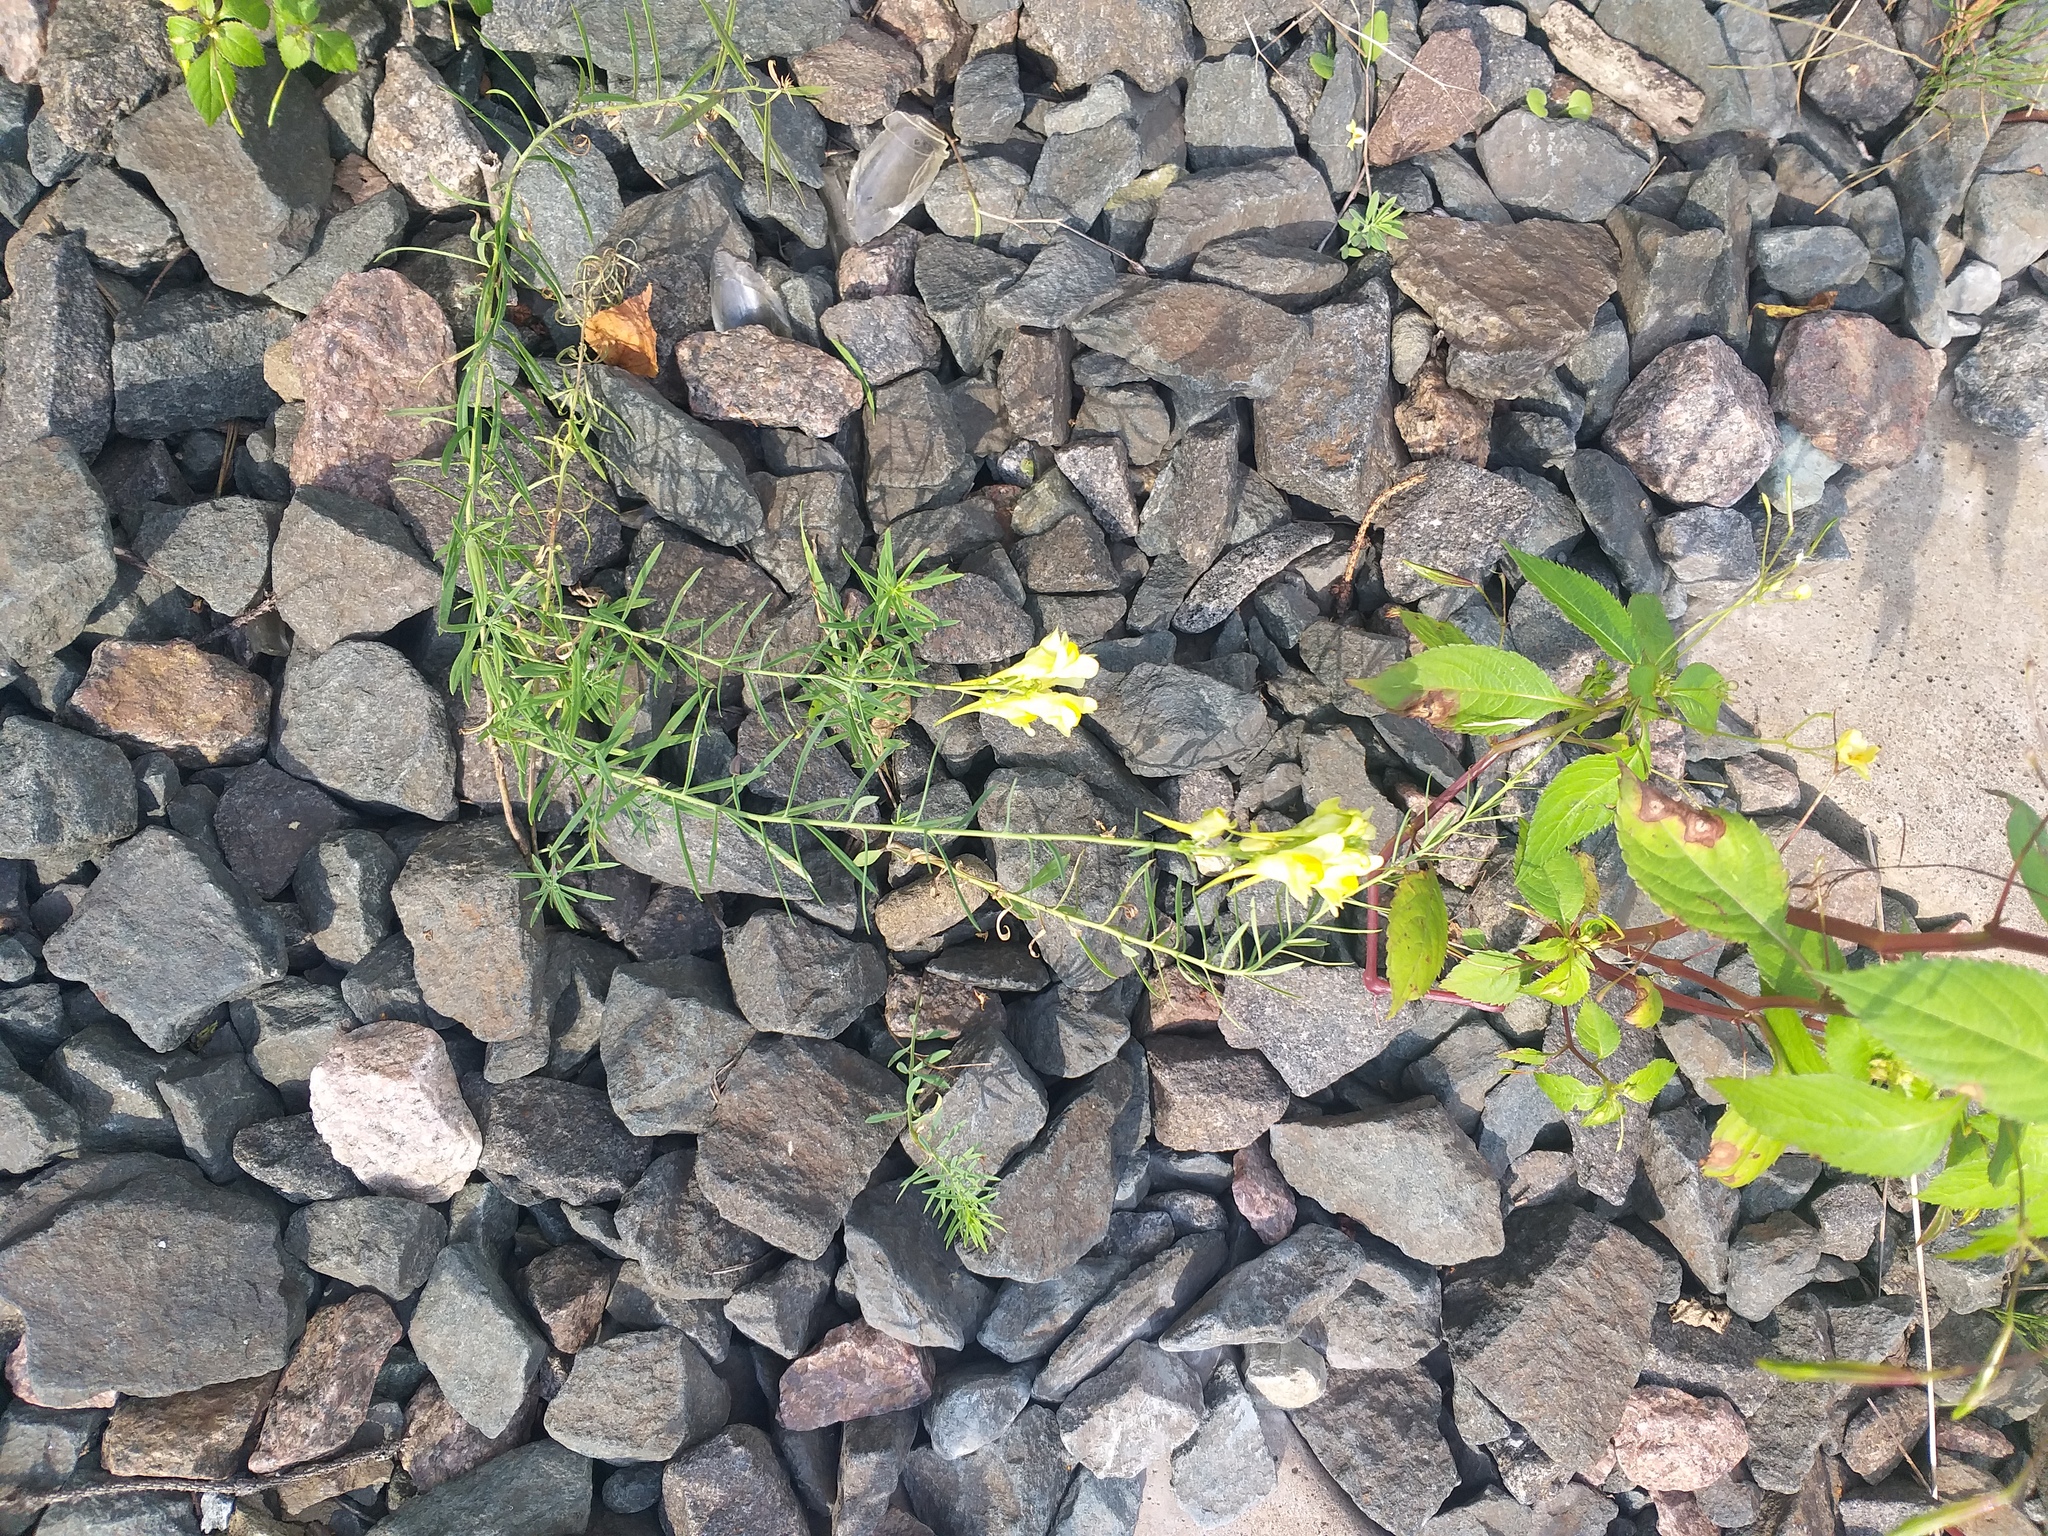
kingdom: Plantae
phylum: Tracheophyta
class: Magnoliopsida
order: Lamiales
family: Plantaginaceae
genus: Linaria
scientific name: Linaria vulgaris
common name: Butter and eggs
